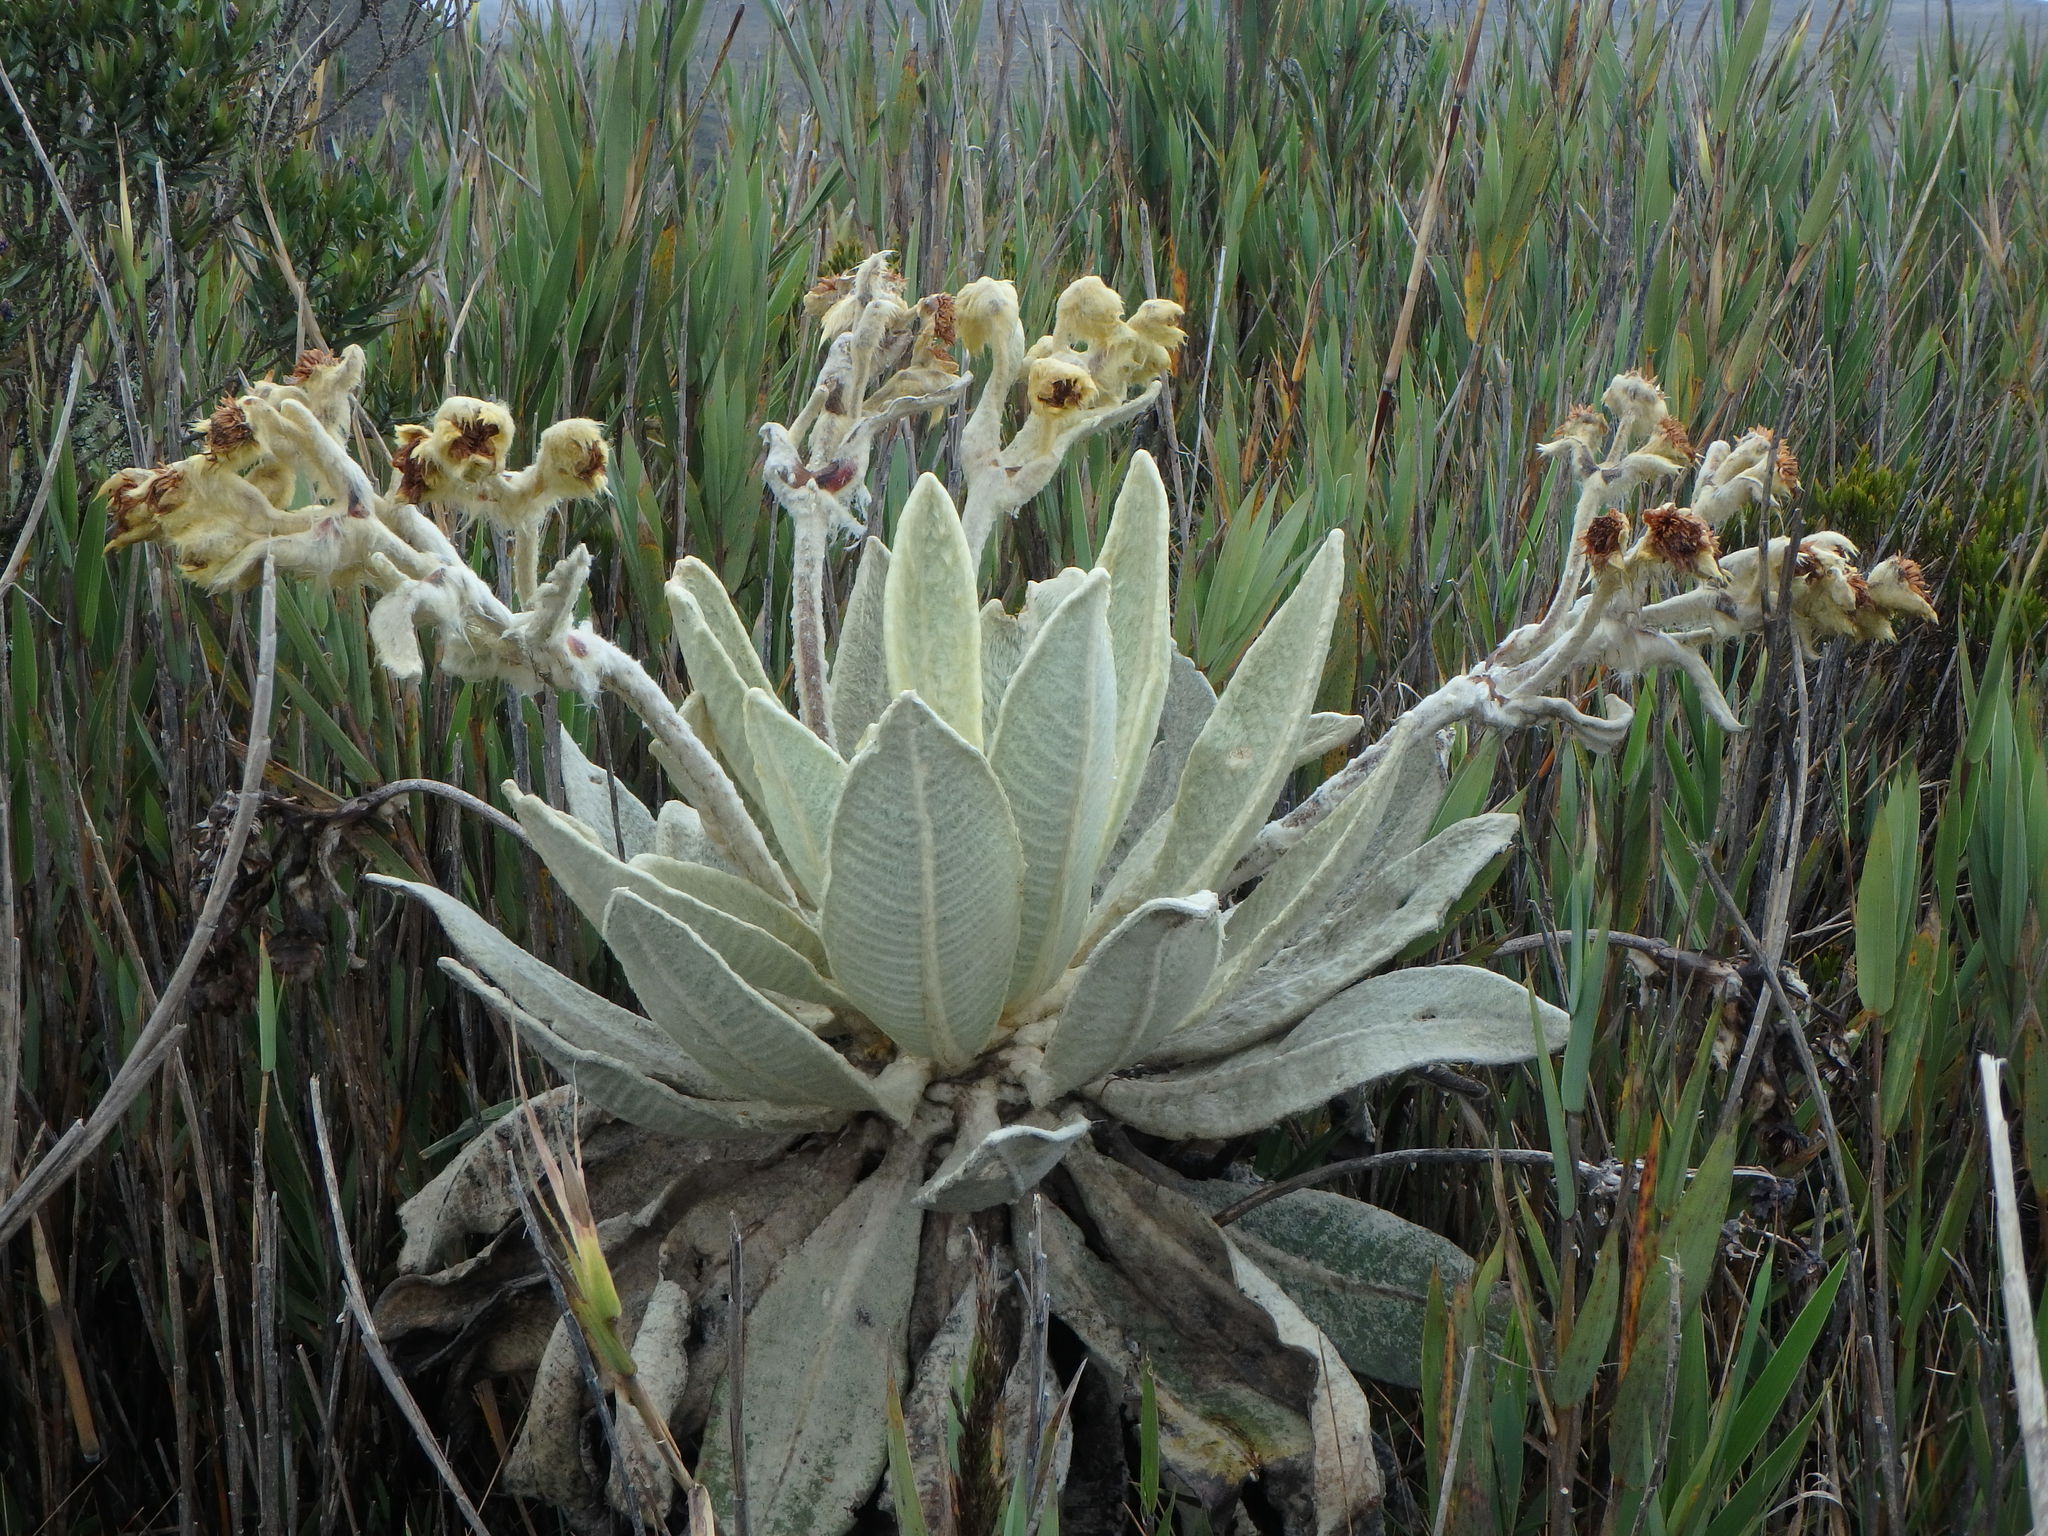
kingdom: Plantae
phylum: Tracheophyta
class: Magnoliopsida
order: Asterales
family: Asteraceae
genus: Espeletia
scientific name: Espeletia barclayana
